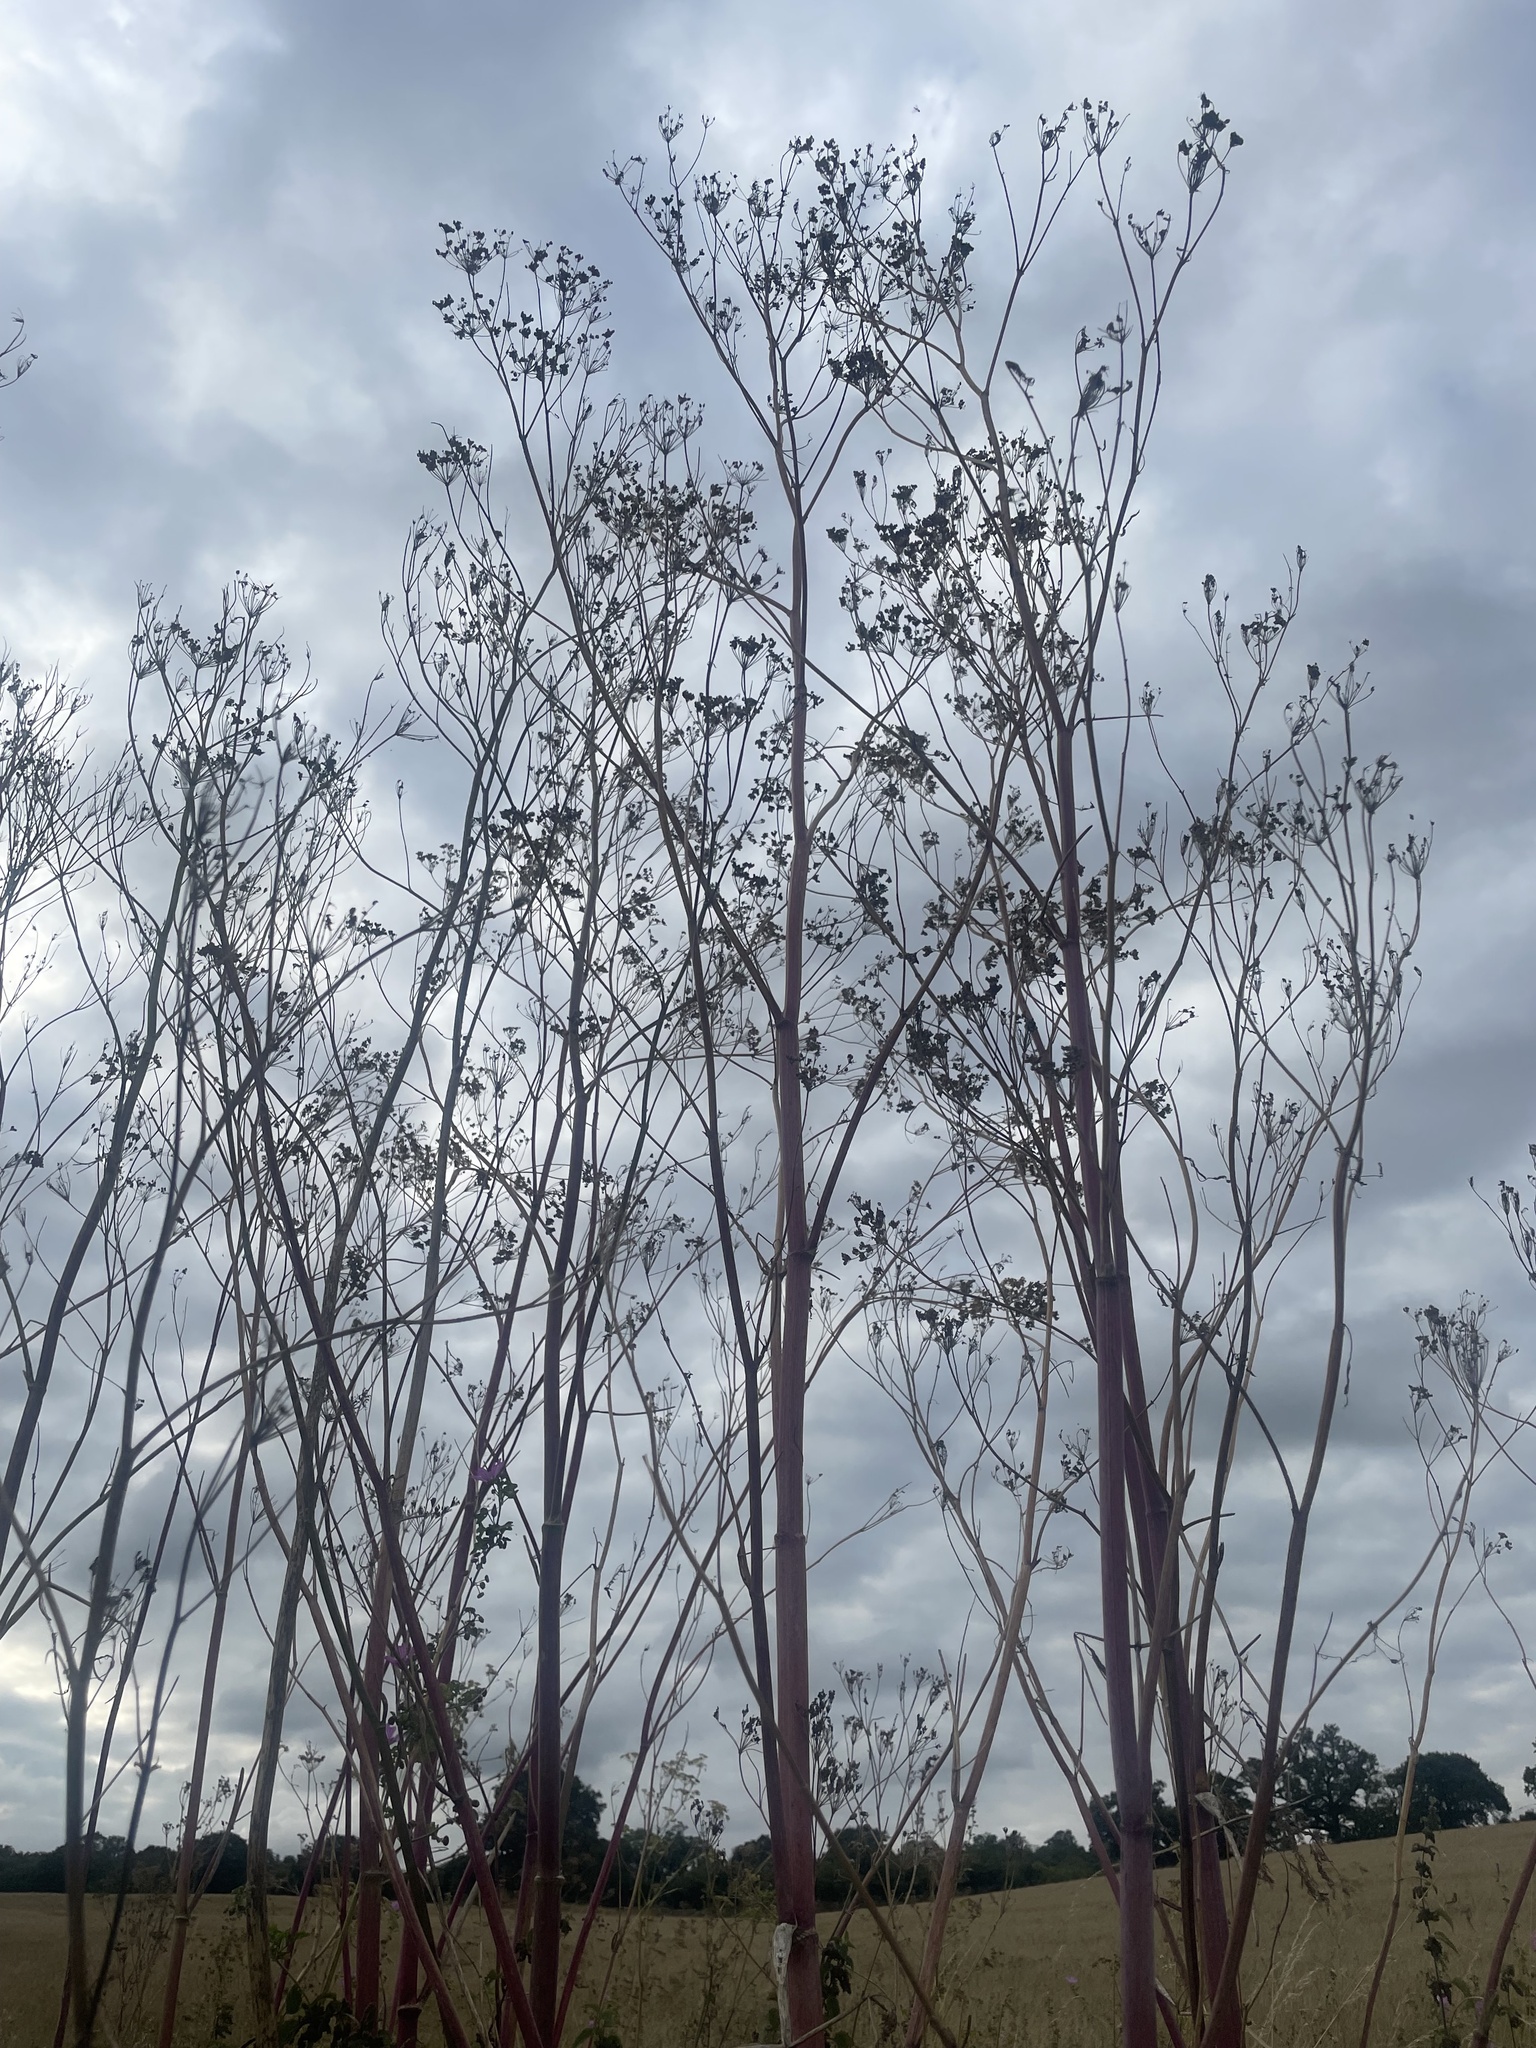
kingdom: Plantae
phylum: Tracheophyta
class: Magnoliopsida
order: Apiales
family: Apiaceae
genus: Conium
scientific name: Conium maculatum
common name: Hemlock
